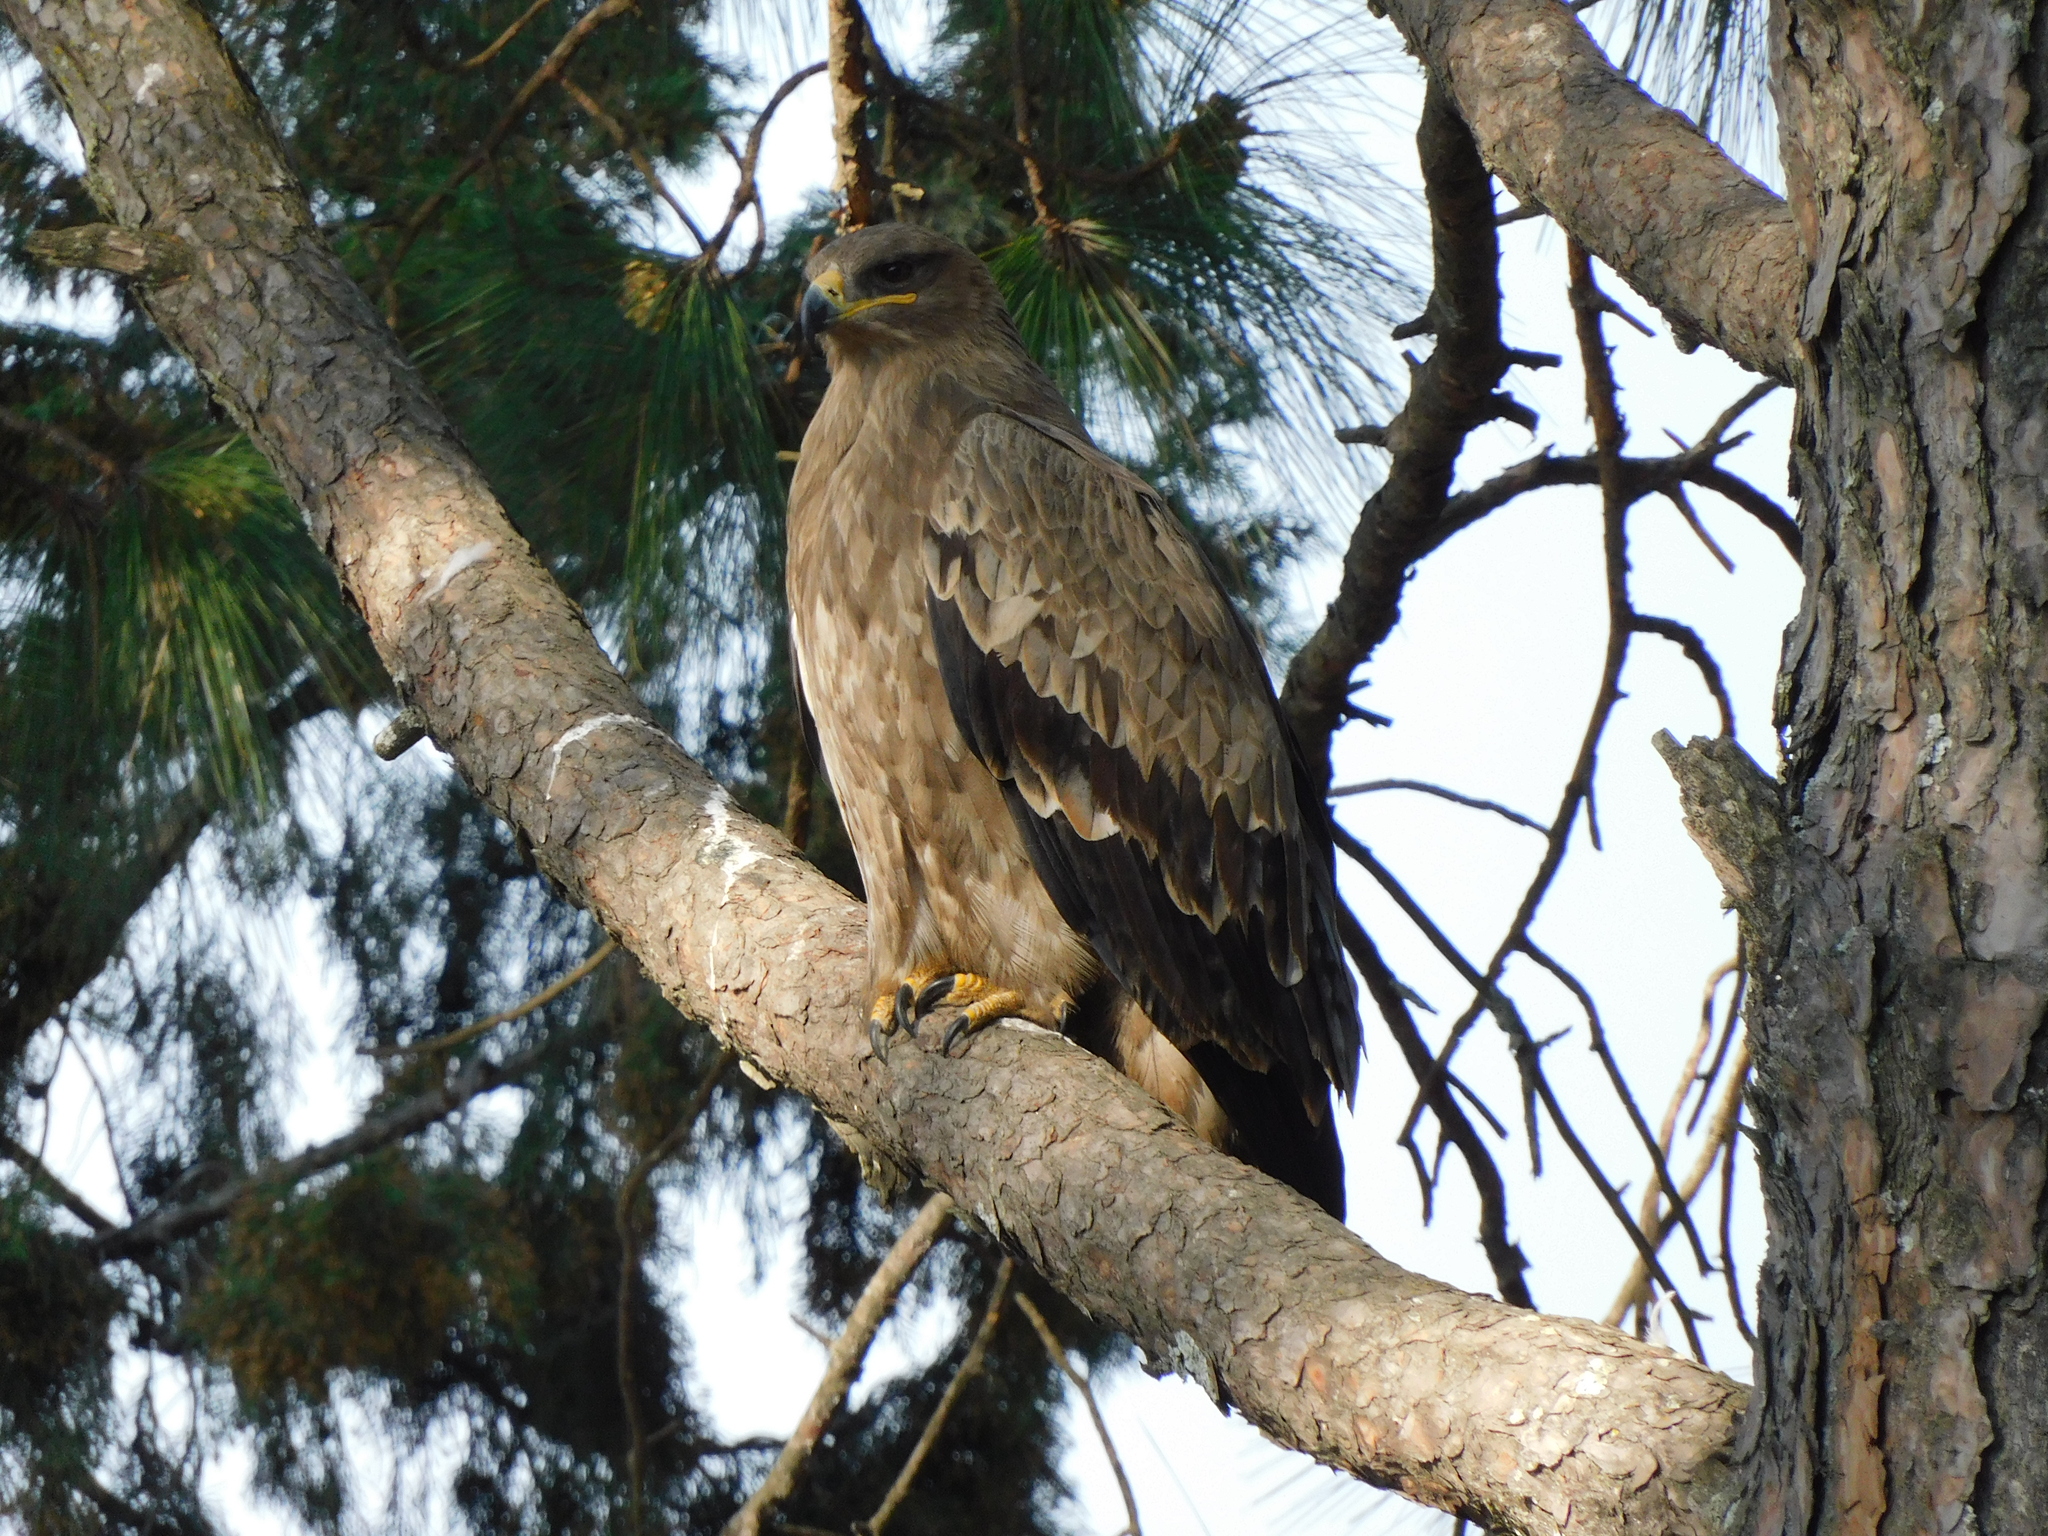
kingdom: Animalia
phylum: Chordata
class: Aves
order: Accipitriformes
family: Accipitridae
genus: Aquila
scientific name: Aquila nipalensis
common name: Steppe eagle
